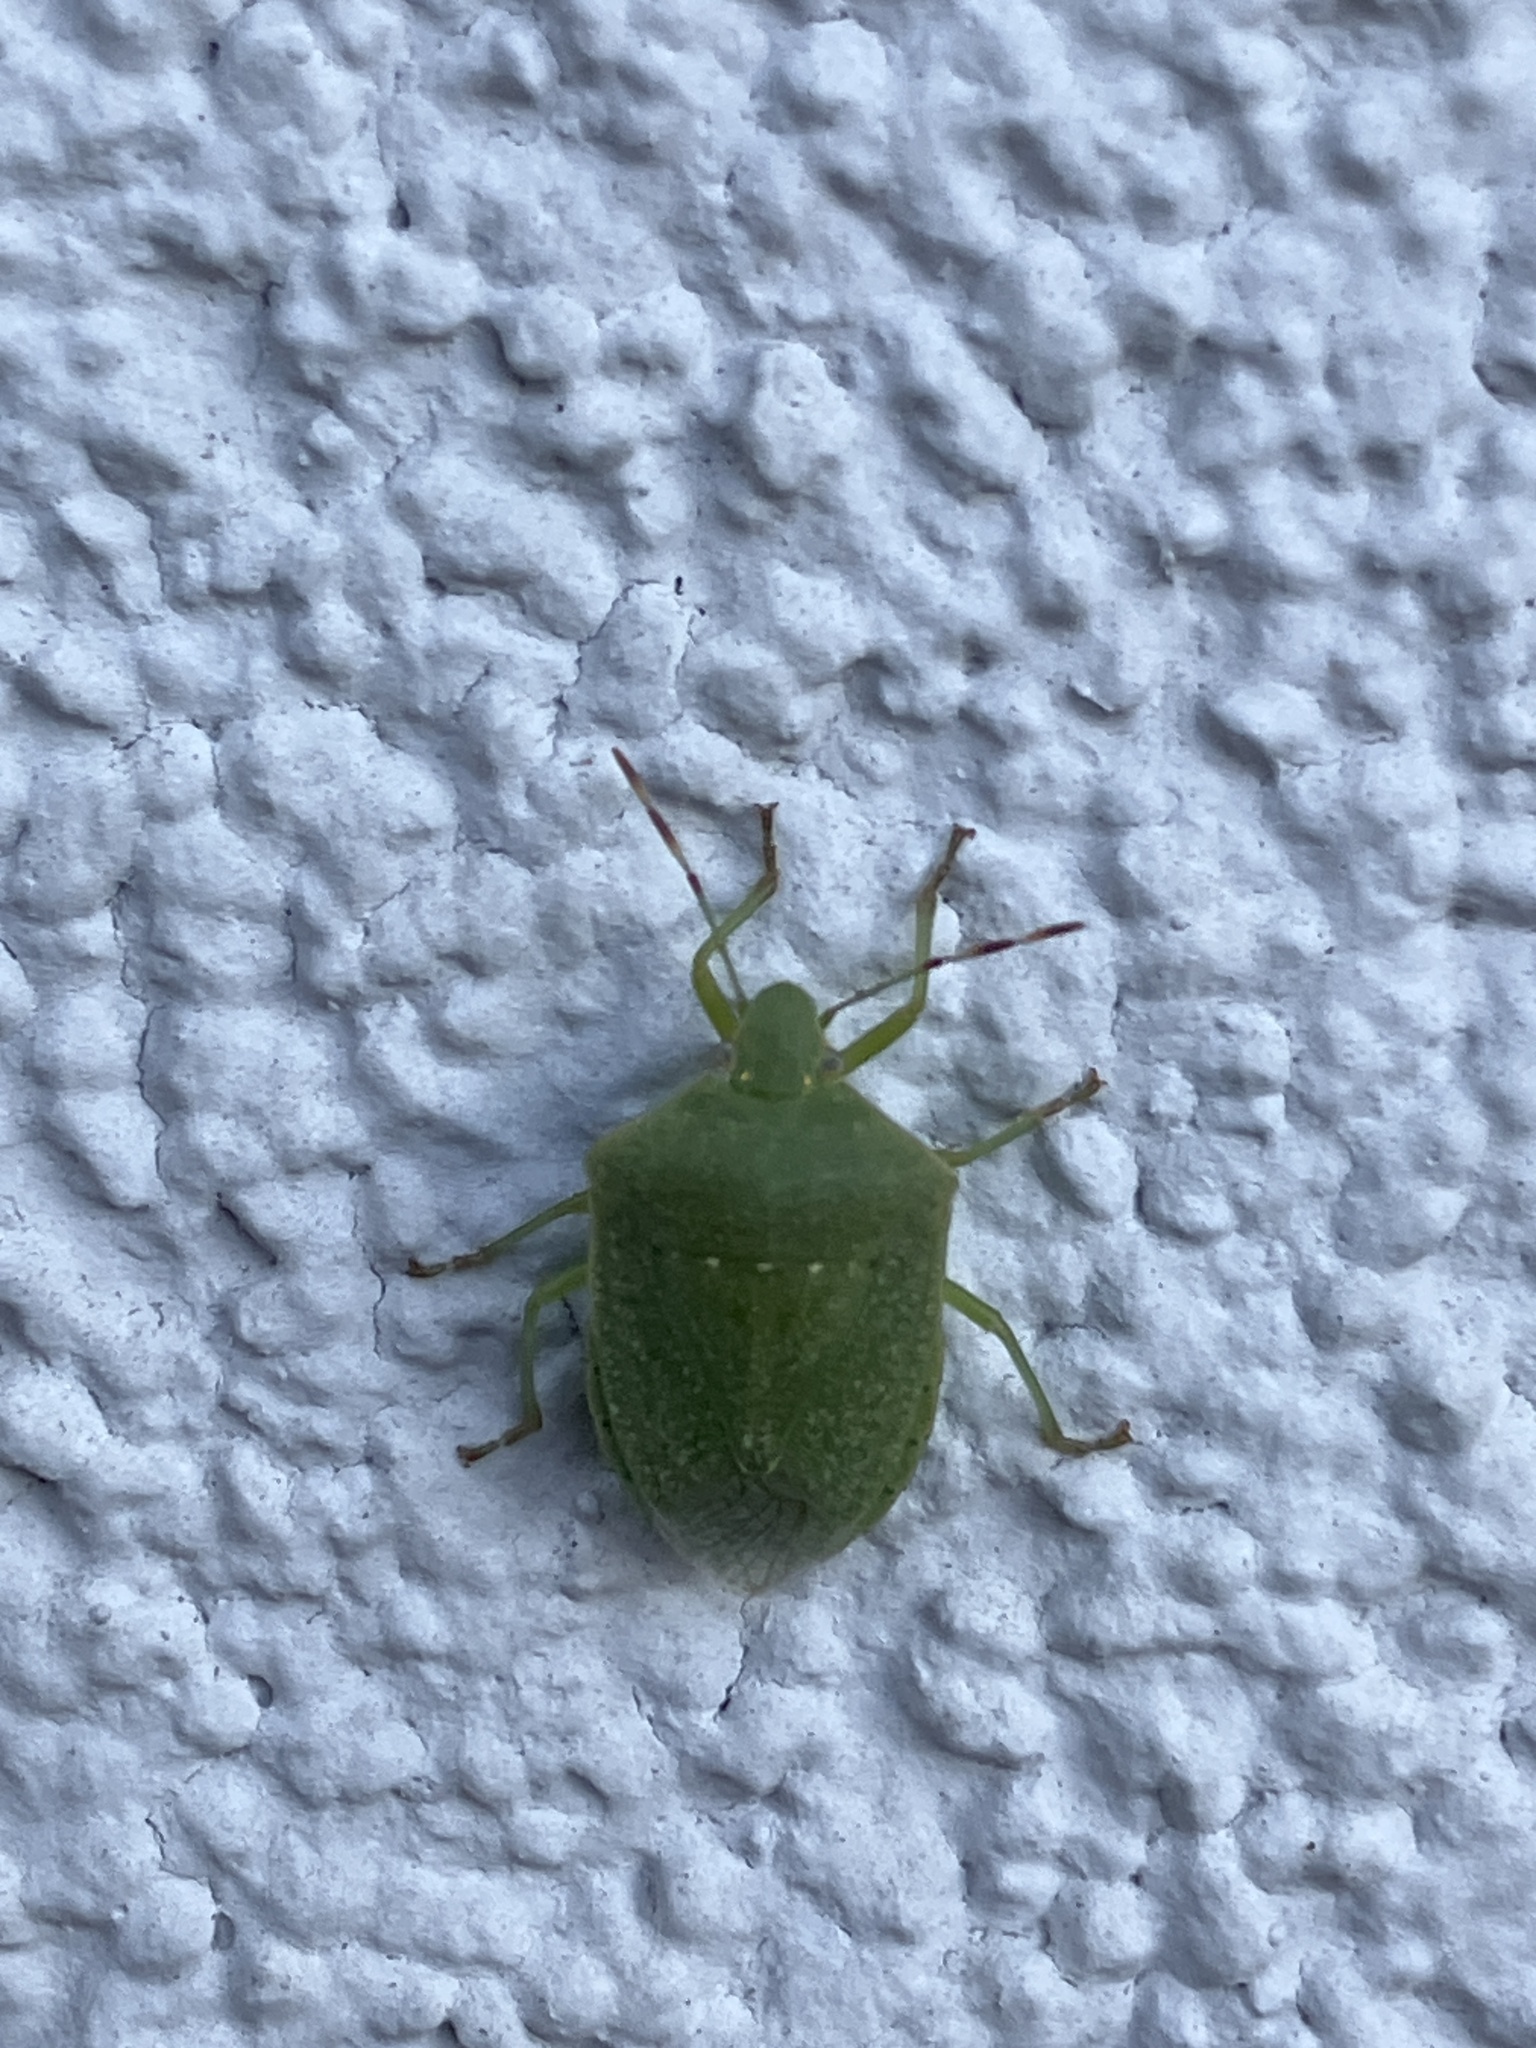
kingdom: Animalia
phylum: Arthropoda
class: Insecta
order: Hemiptera
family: Pentatomidae
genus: Nezara
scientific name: Nezara viridula
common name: Southern green stink bug
